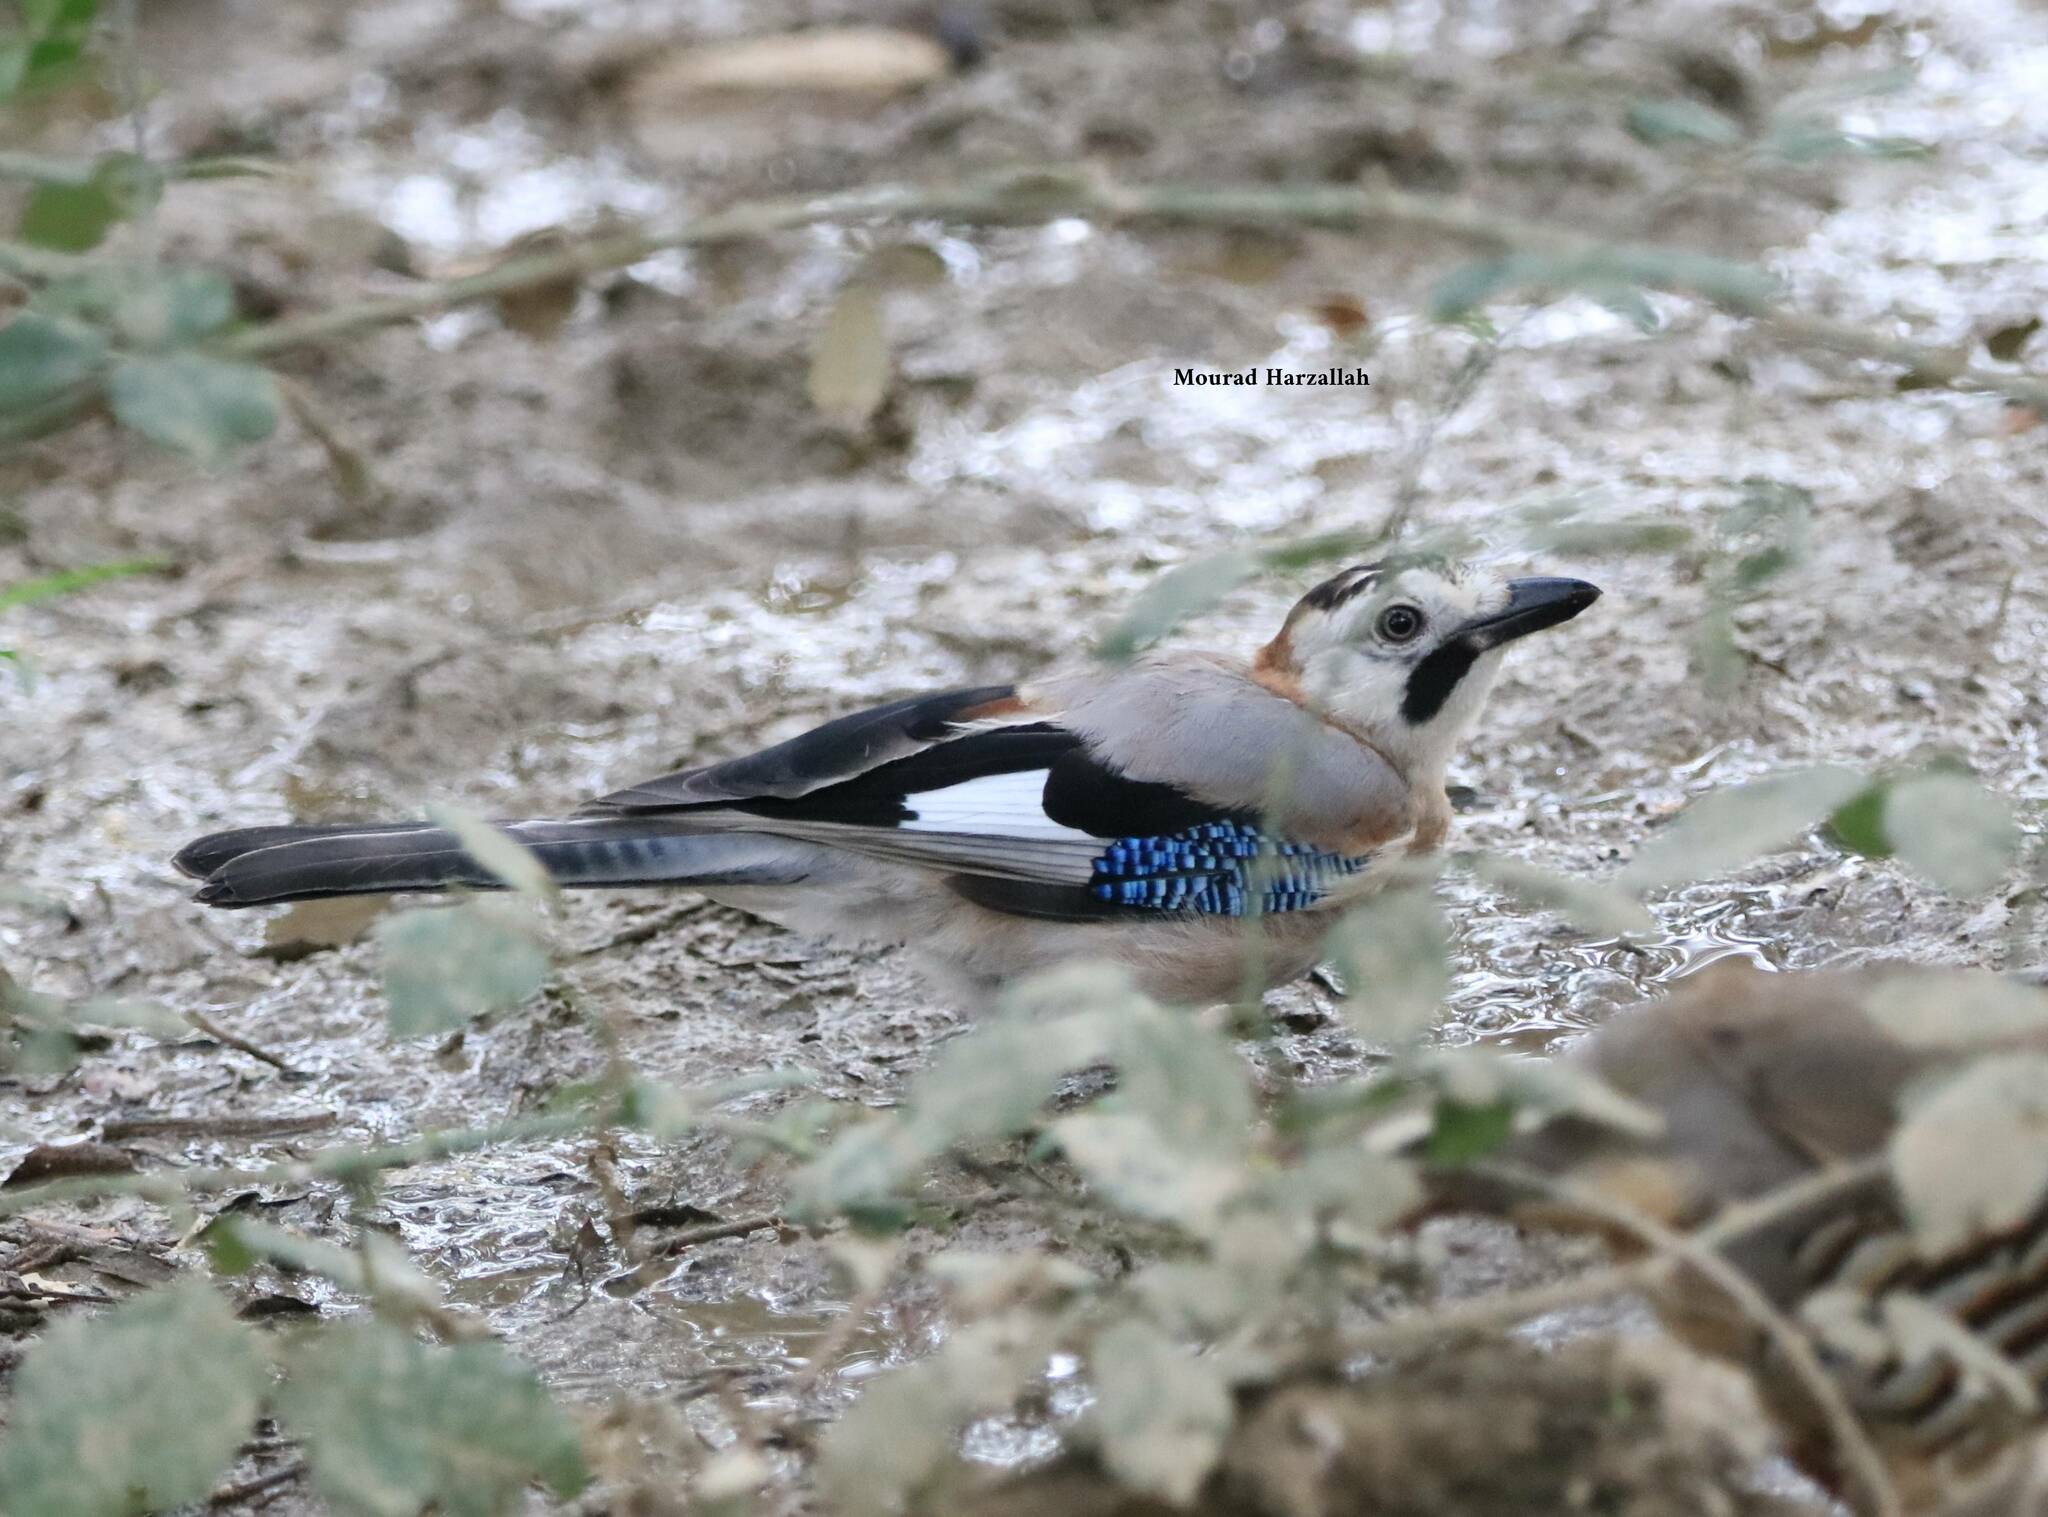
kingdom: Animalia
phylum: Chordata
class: Aves
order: Passeriformes
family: Corvidae
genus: Garrulus
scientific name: Garrulus glandarius
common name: Eurasian jay
